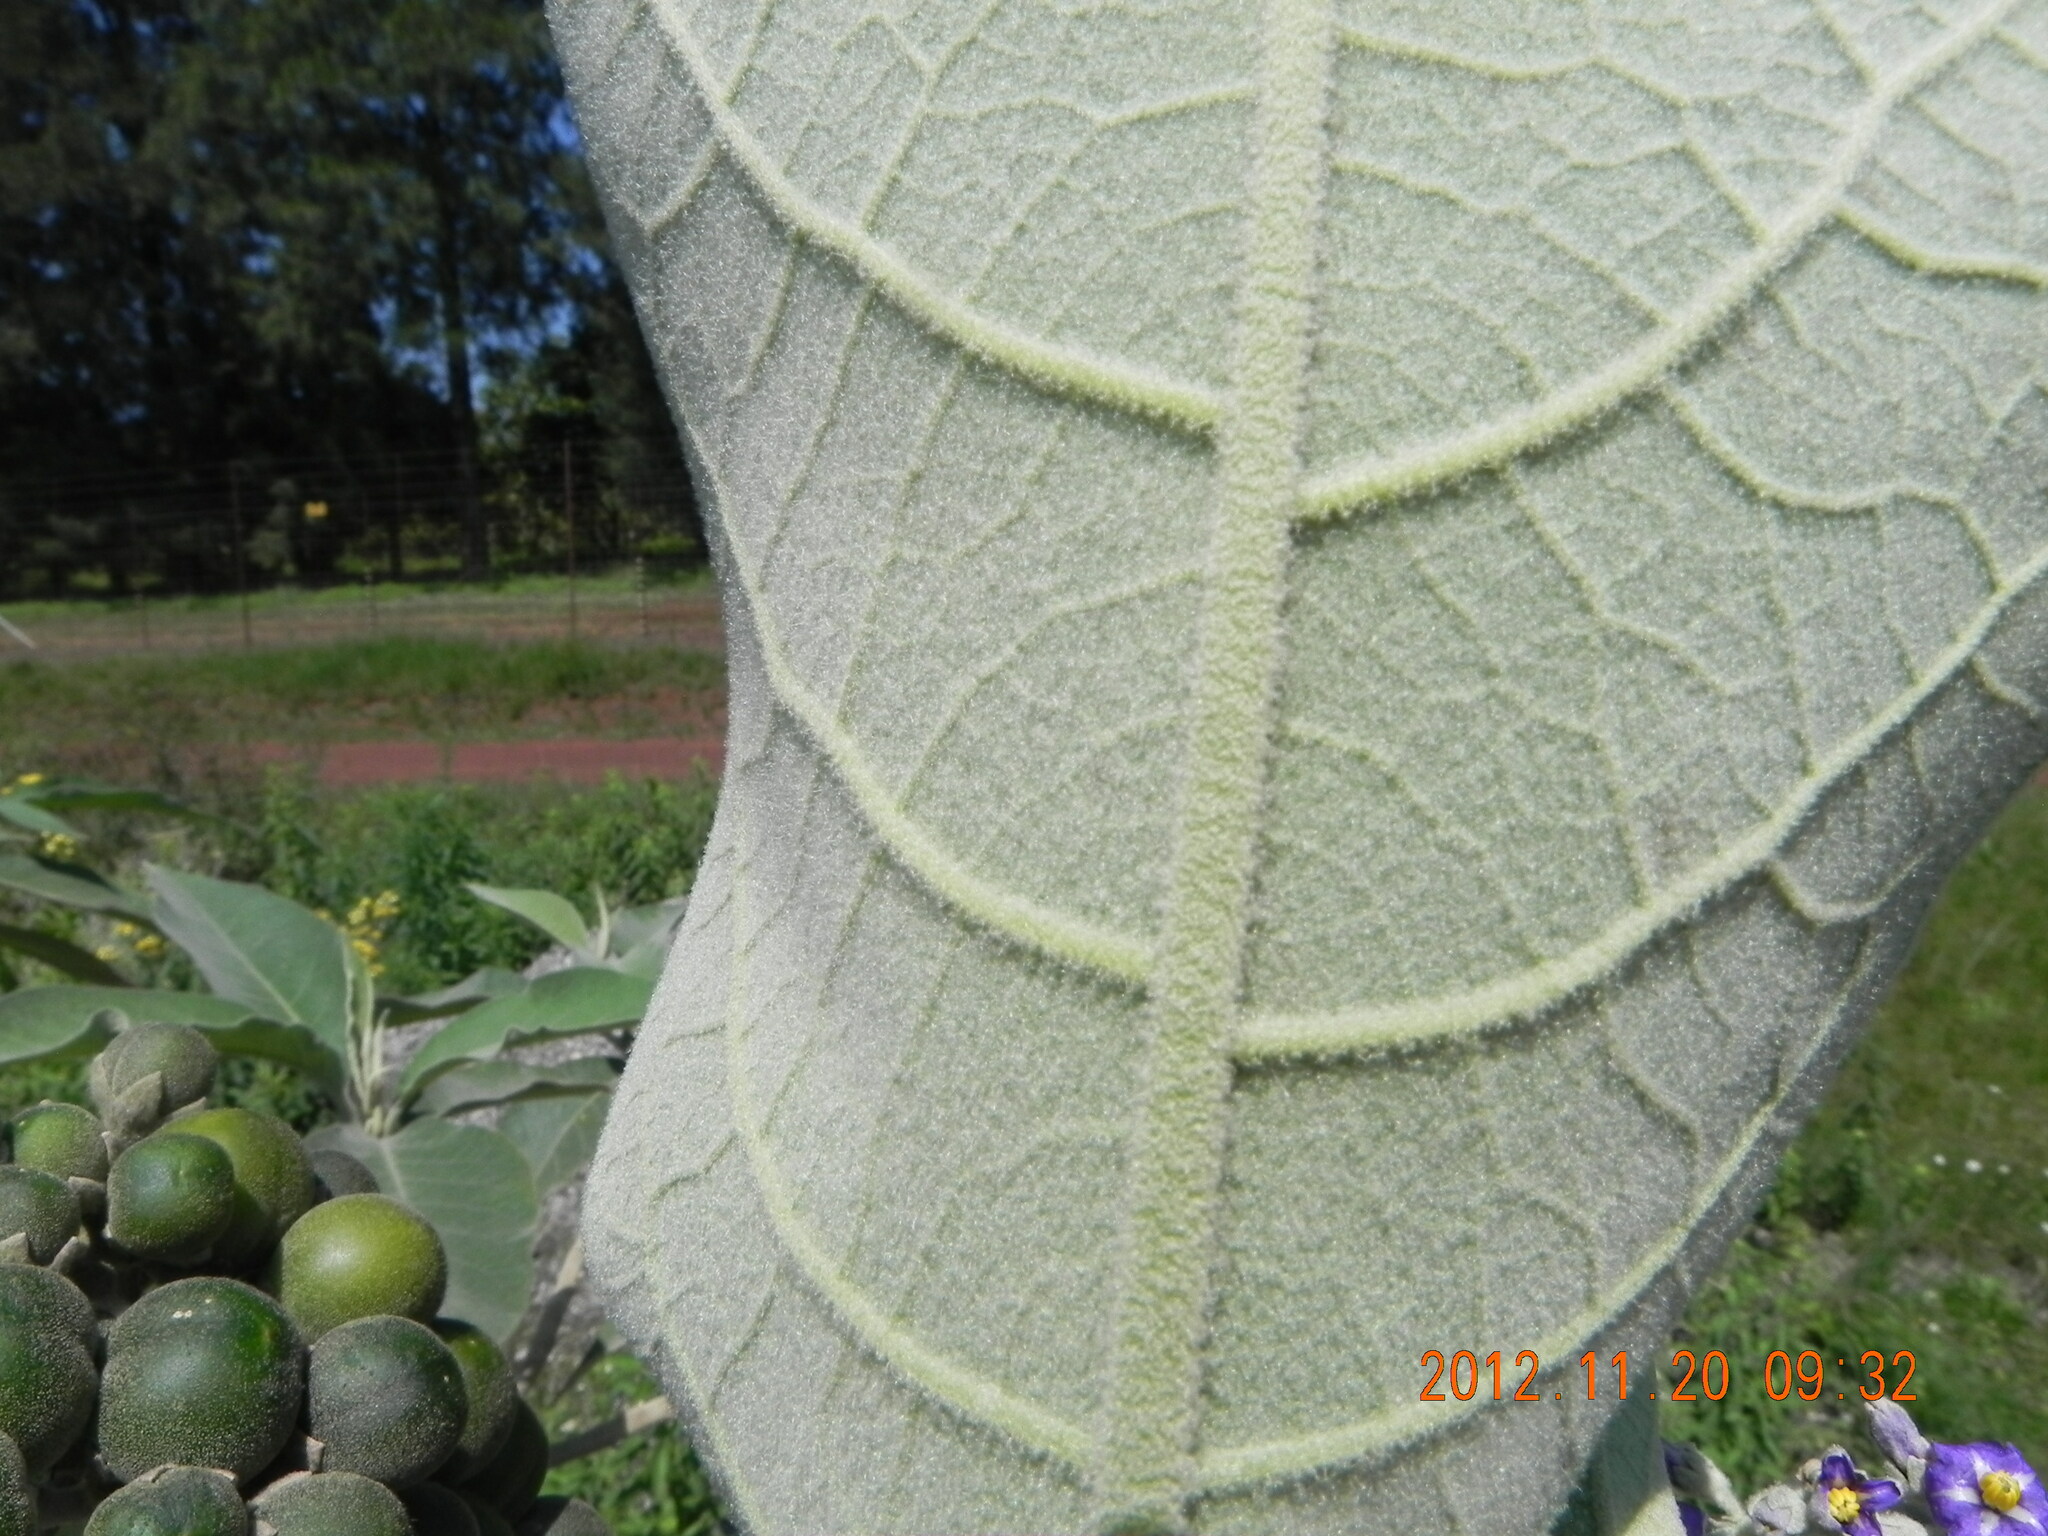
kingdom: Plantae
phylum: Tracheophyta
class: Magnoliopsida
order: Solanales
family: Solanaceae
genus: Solanum
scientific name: Solanum mauritianum
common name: Earleaf nightshade
